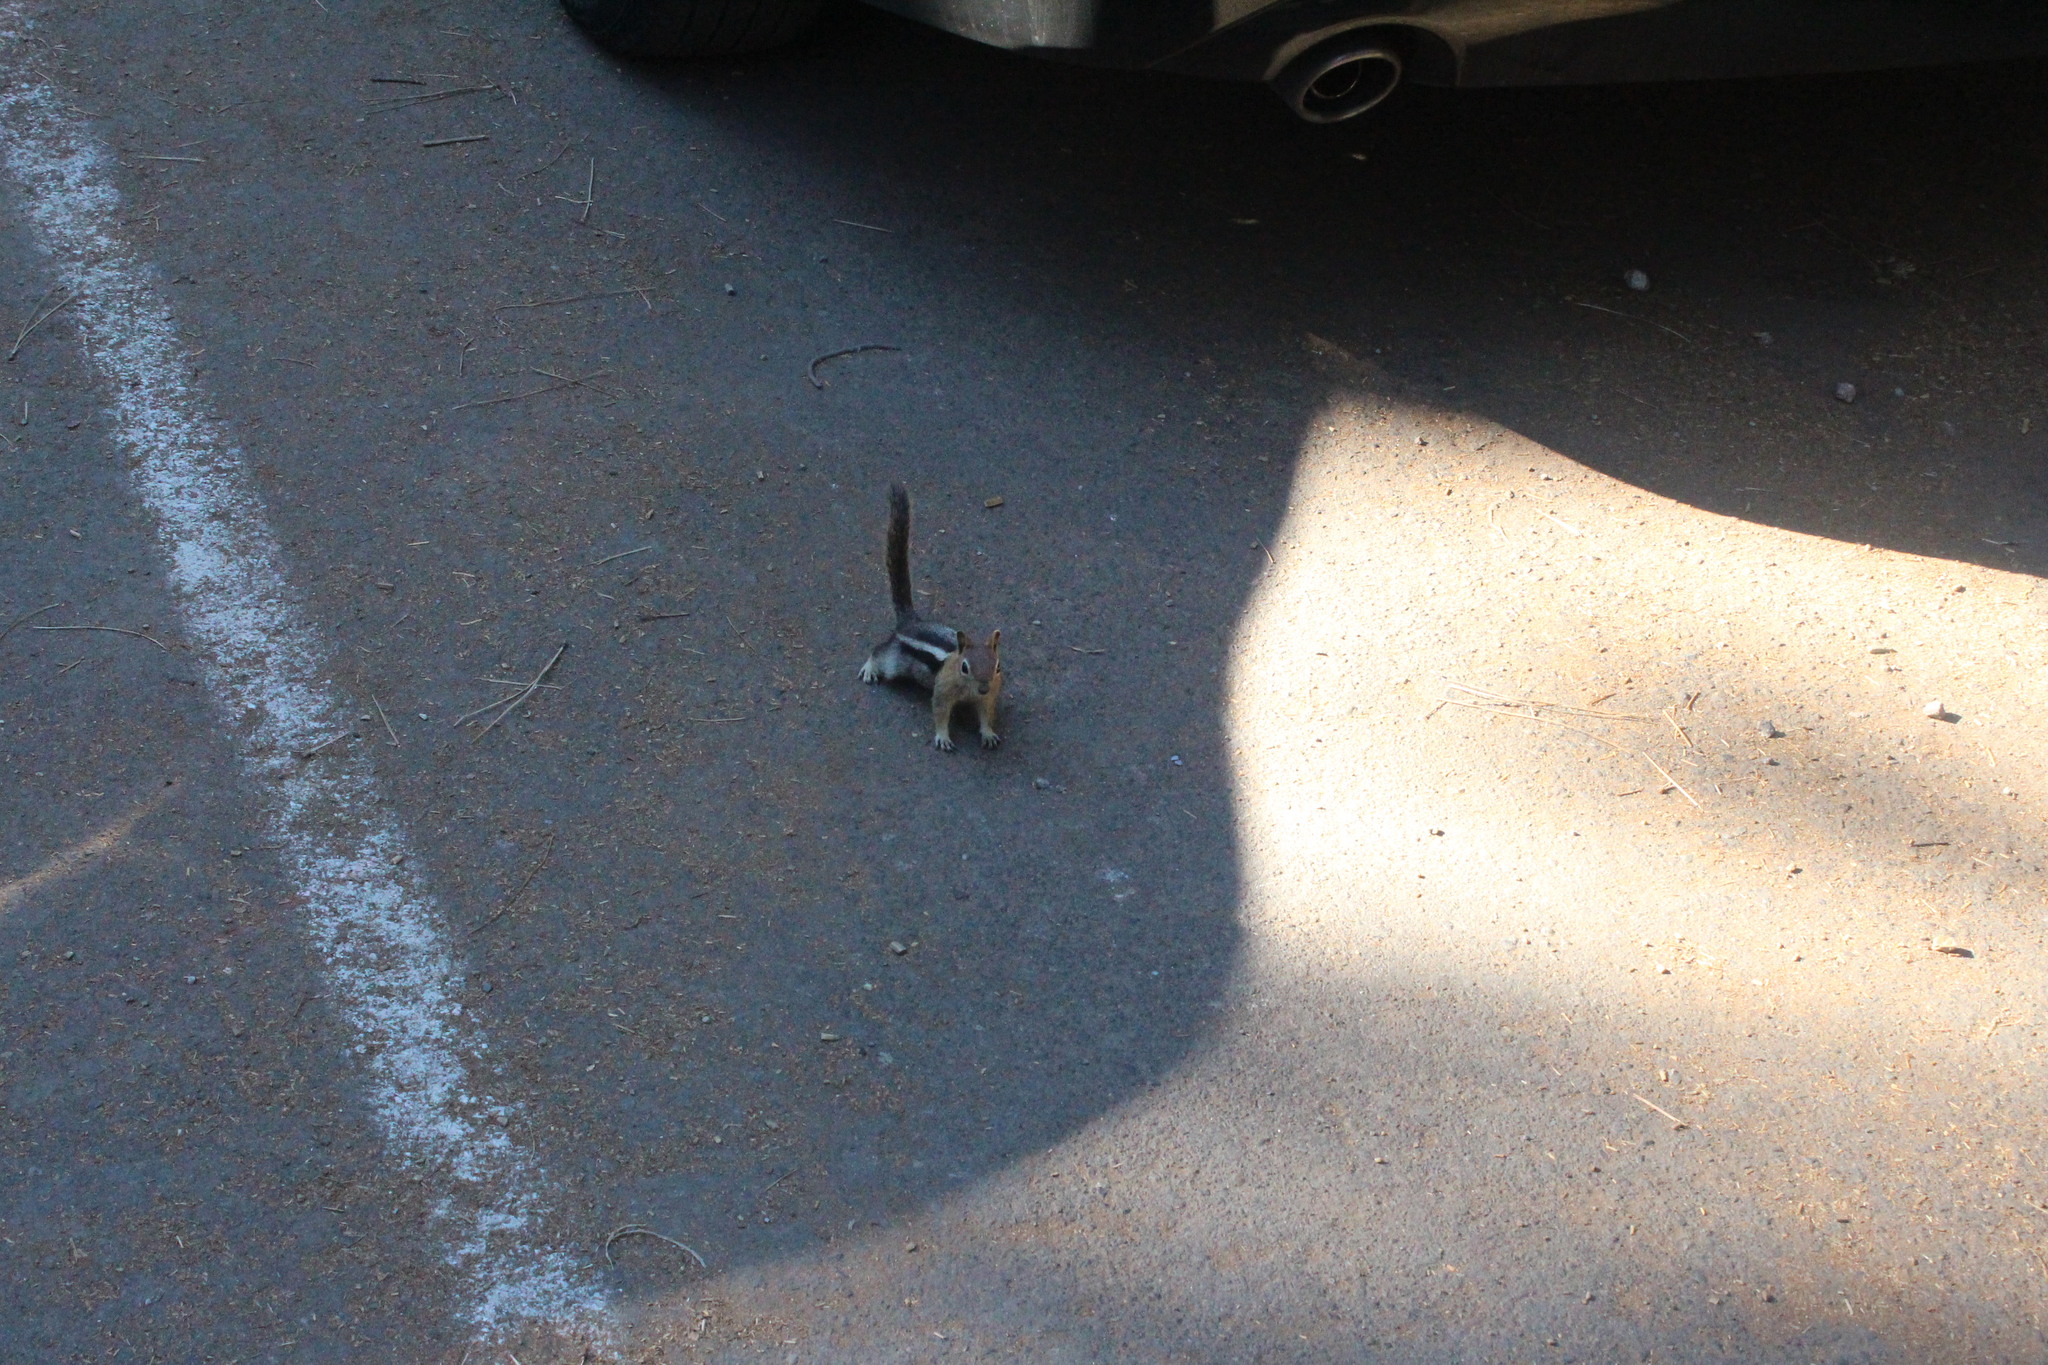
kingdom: Animalia
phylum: Chordata
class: Mammalia
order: Rodentia
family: Sciuridae
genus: Callospermophilus
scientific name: Callospermophilus lateralis
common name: Golden-mantled ground squirrel
